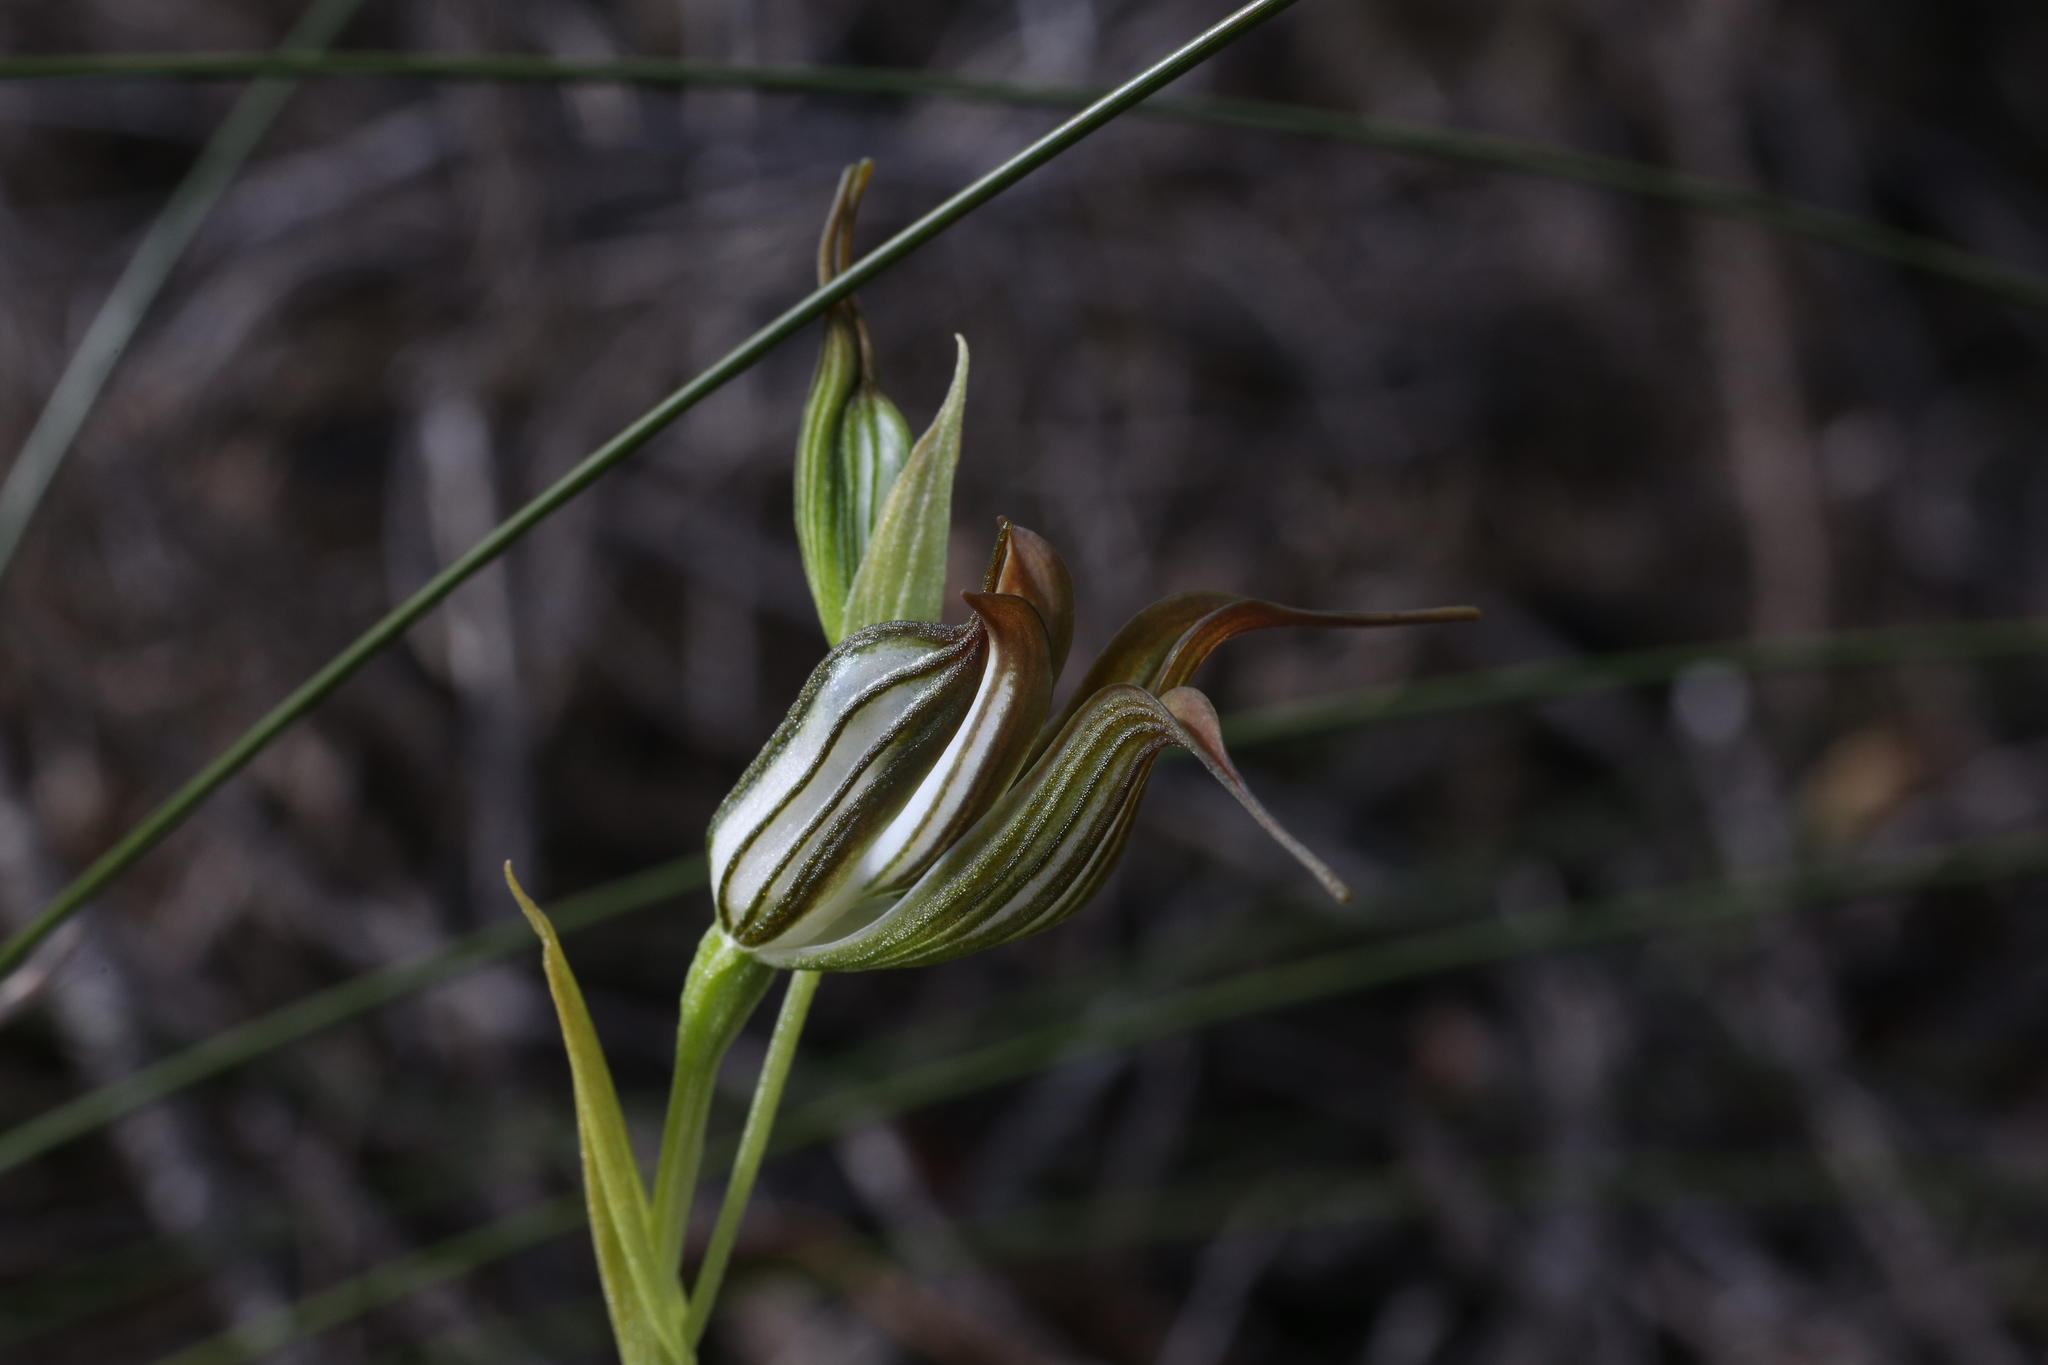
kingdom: Plantae
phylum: Tracheophyta
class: Liliopsida
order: Asparagales
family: Orchidaceae
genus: Pterostylis
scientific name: Pterostylis recurva
